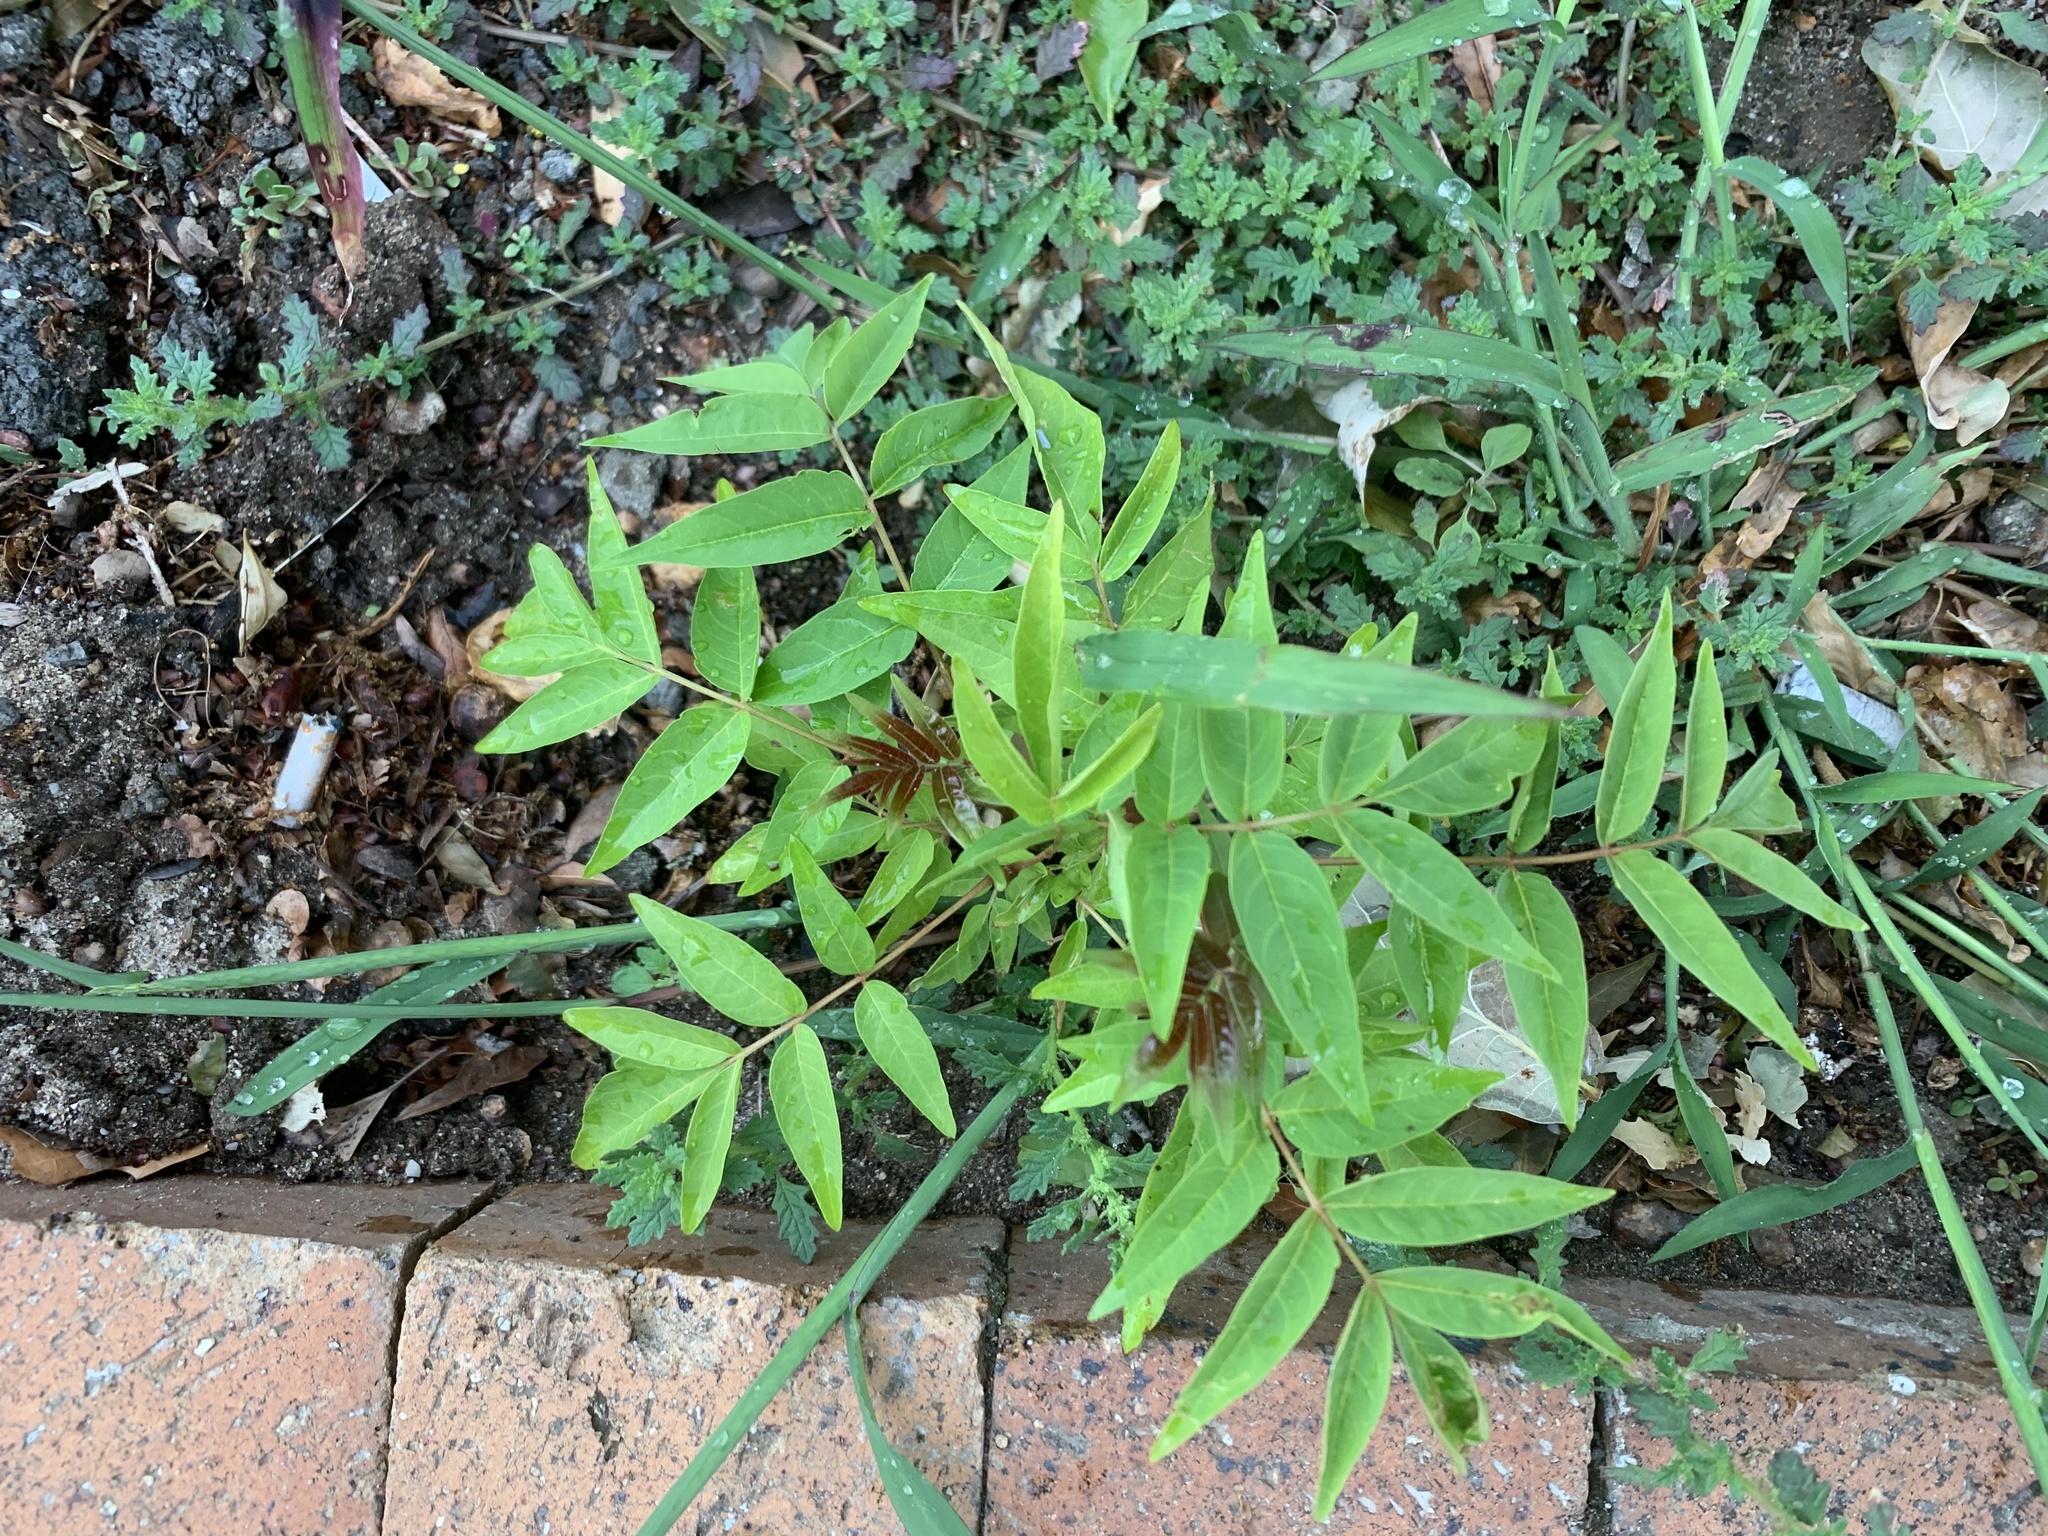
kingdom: Plantae
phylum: Tracheophyta
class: Magnoliopsida
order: Sapindales
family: Simaroubaceae
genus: Ailanthus
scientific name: Ailanthus altissima
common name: Tree-of-heaven
